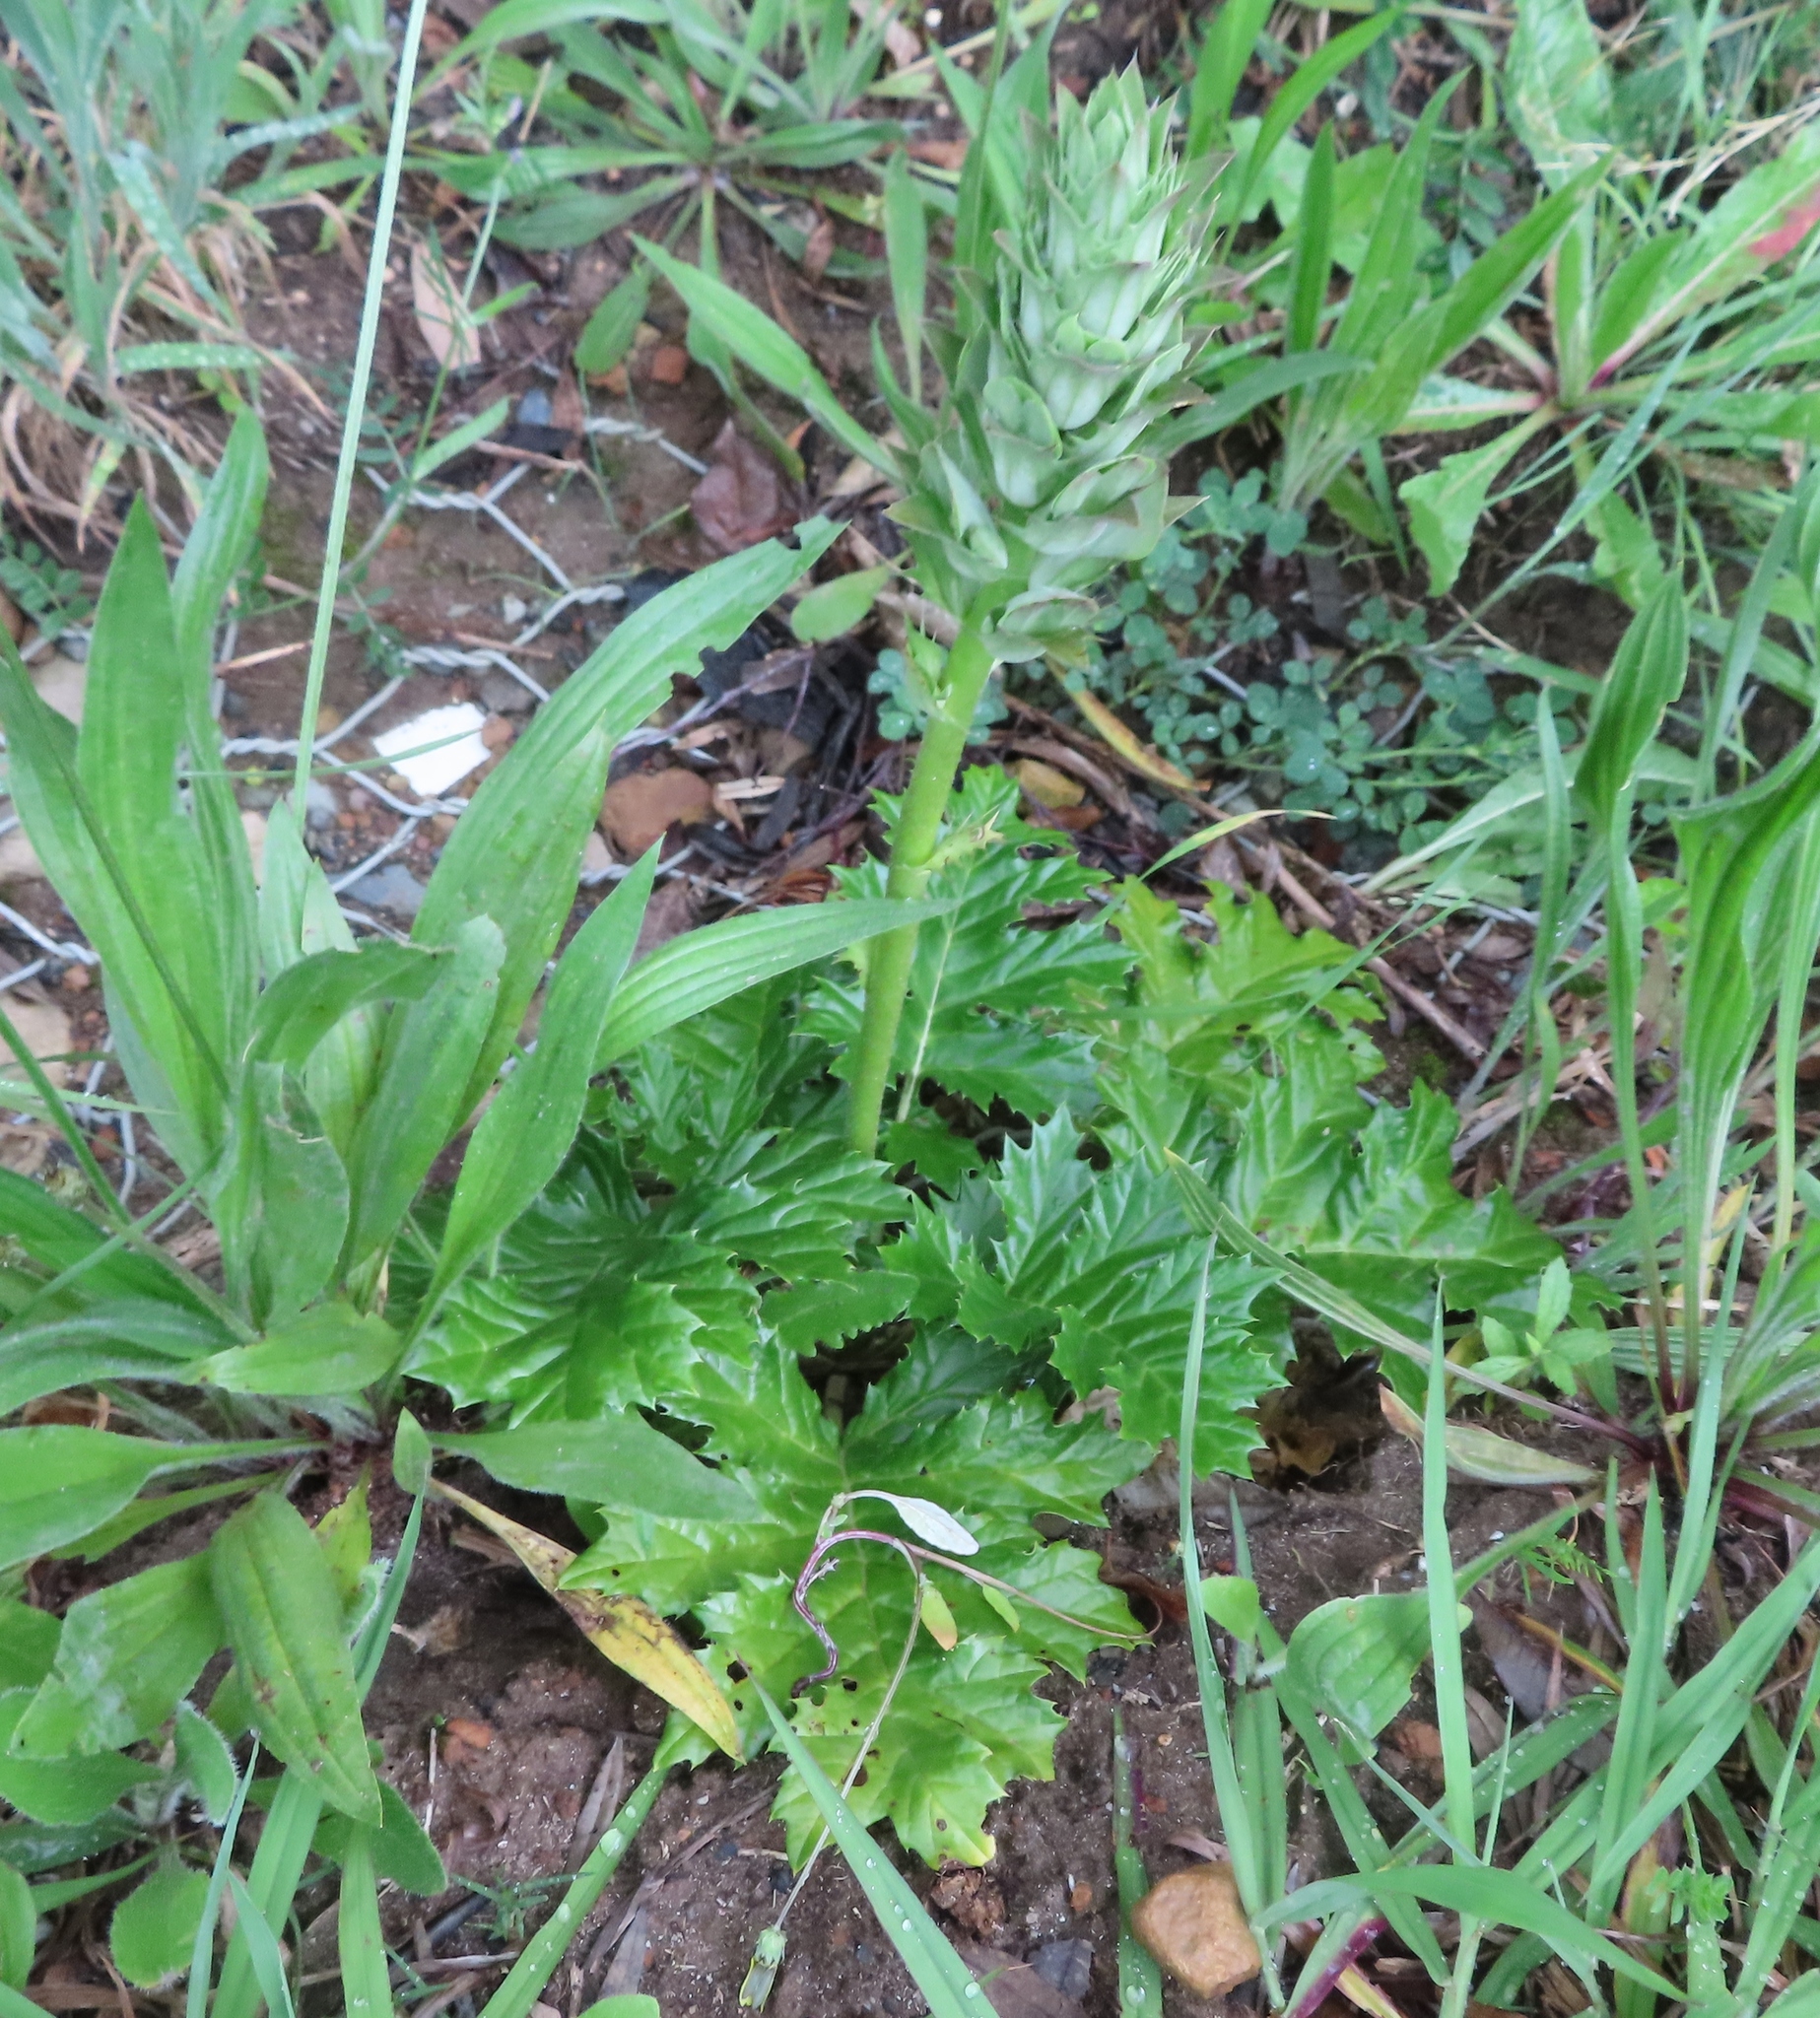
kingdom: Plantae
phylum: Tracheophyta
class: Magnoliopsida
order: Lamiales
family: Acanthaceae
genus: Acanthus
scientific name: Acanthus mollis
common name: Bear's-breech
